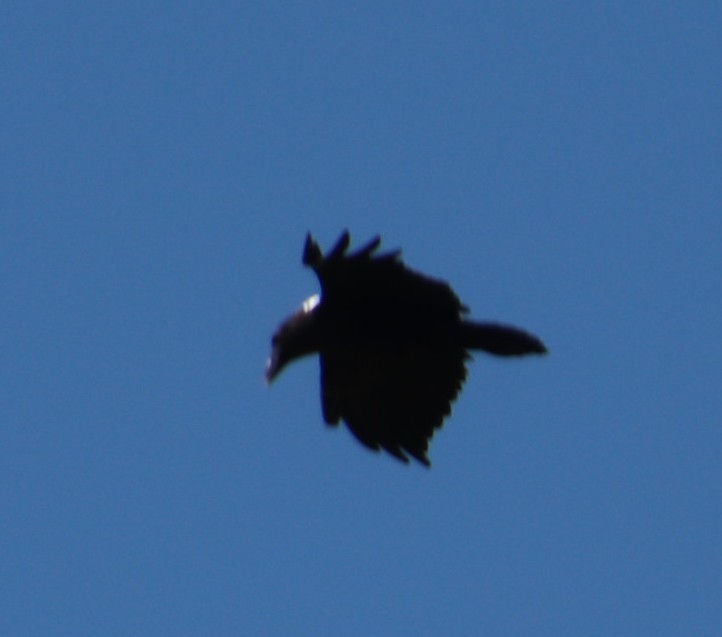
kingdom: Animalia
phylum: Chordata
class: Aves
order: Passeriformes
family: Corvidae
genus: Corvus
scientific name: Corvus albicollis
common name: White-necked raven
